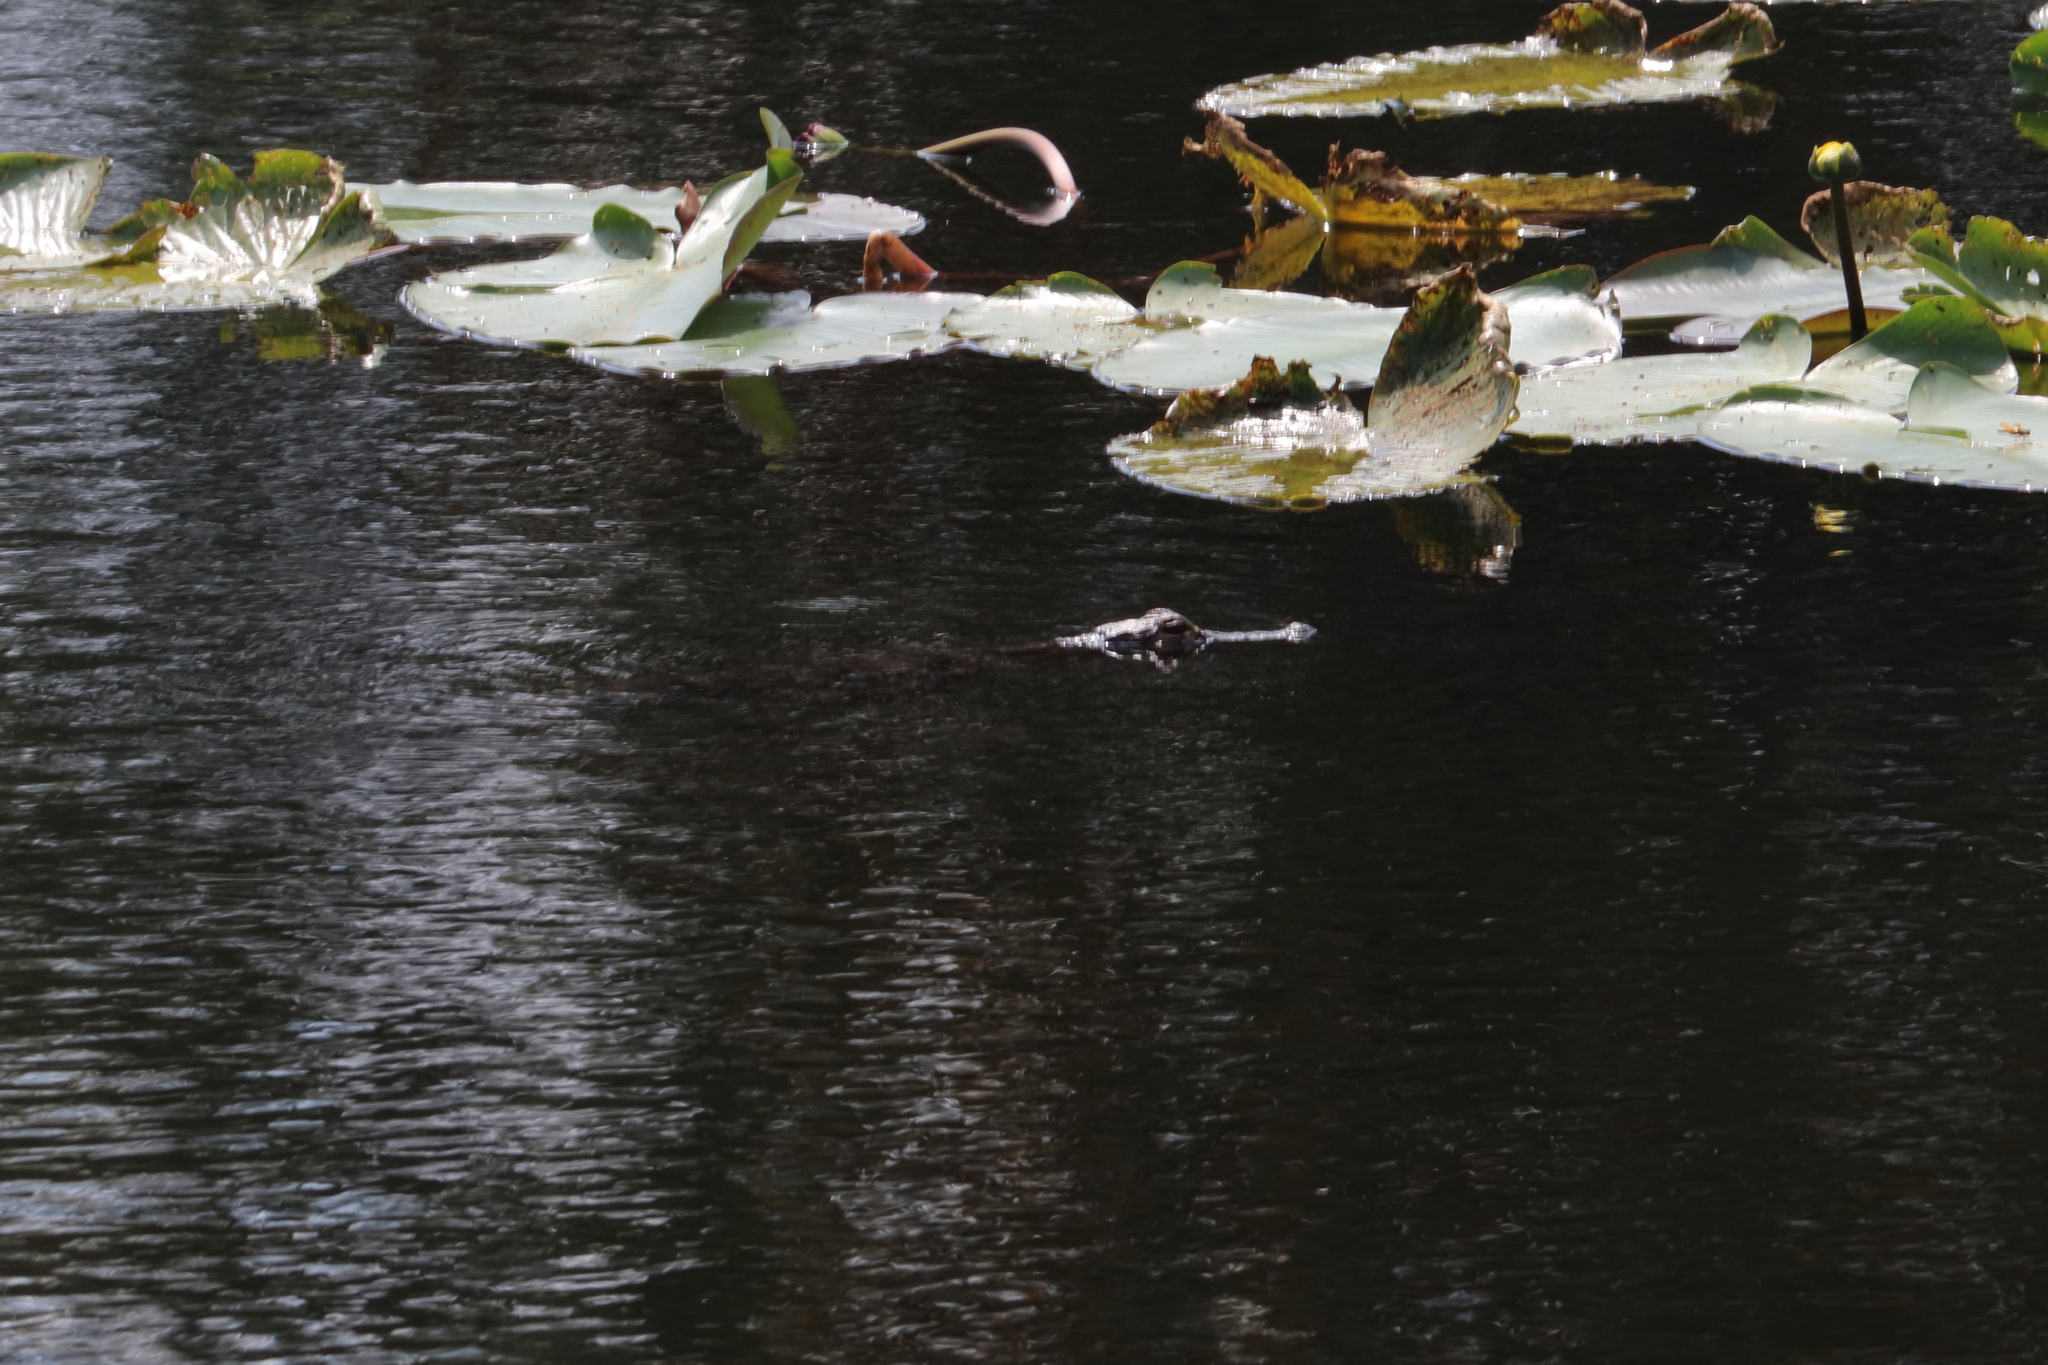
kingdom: Animalia
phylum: Chordata
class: Crocodylia
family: Alligatoridae
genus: Alligator
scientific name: Alligator mississippiensis
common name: American alligator
